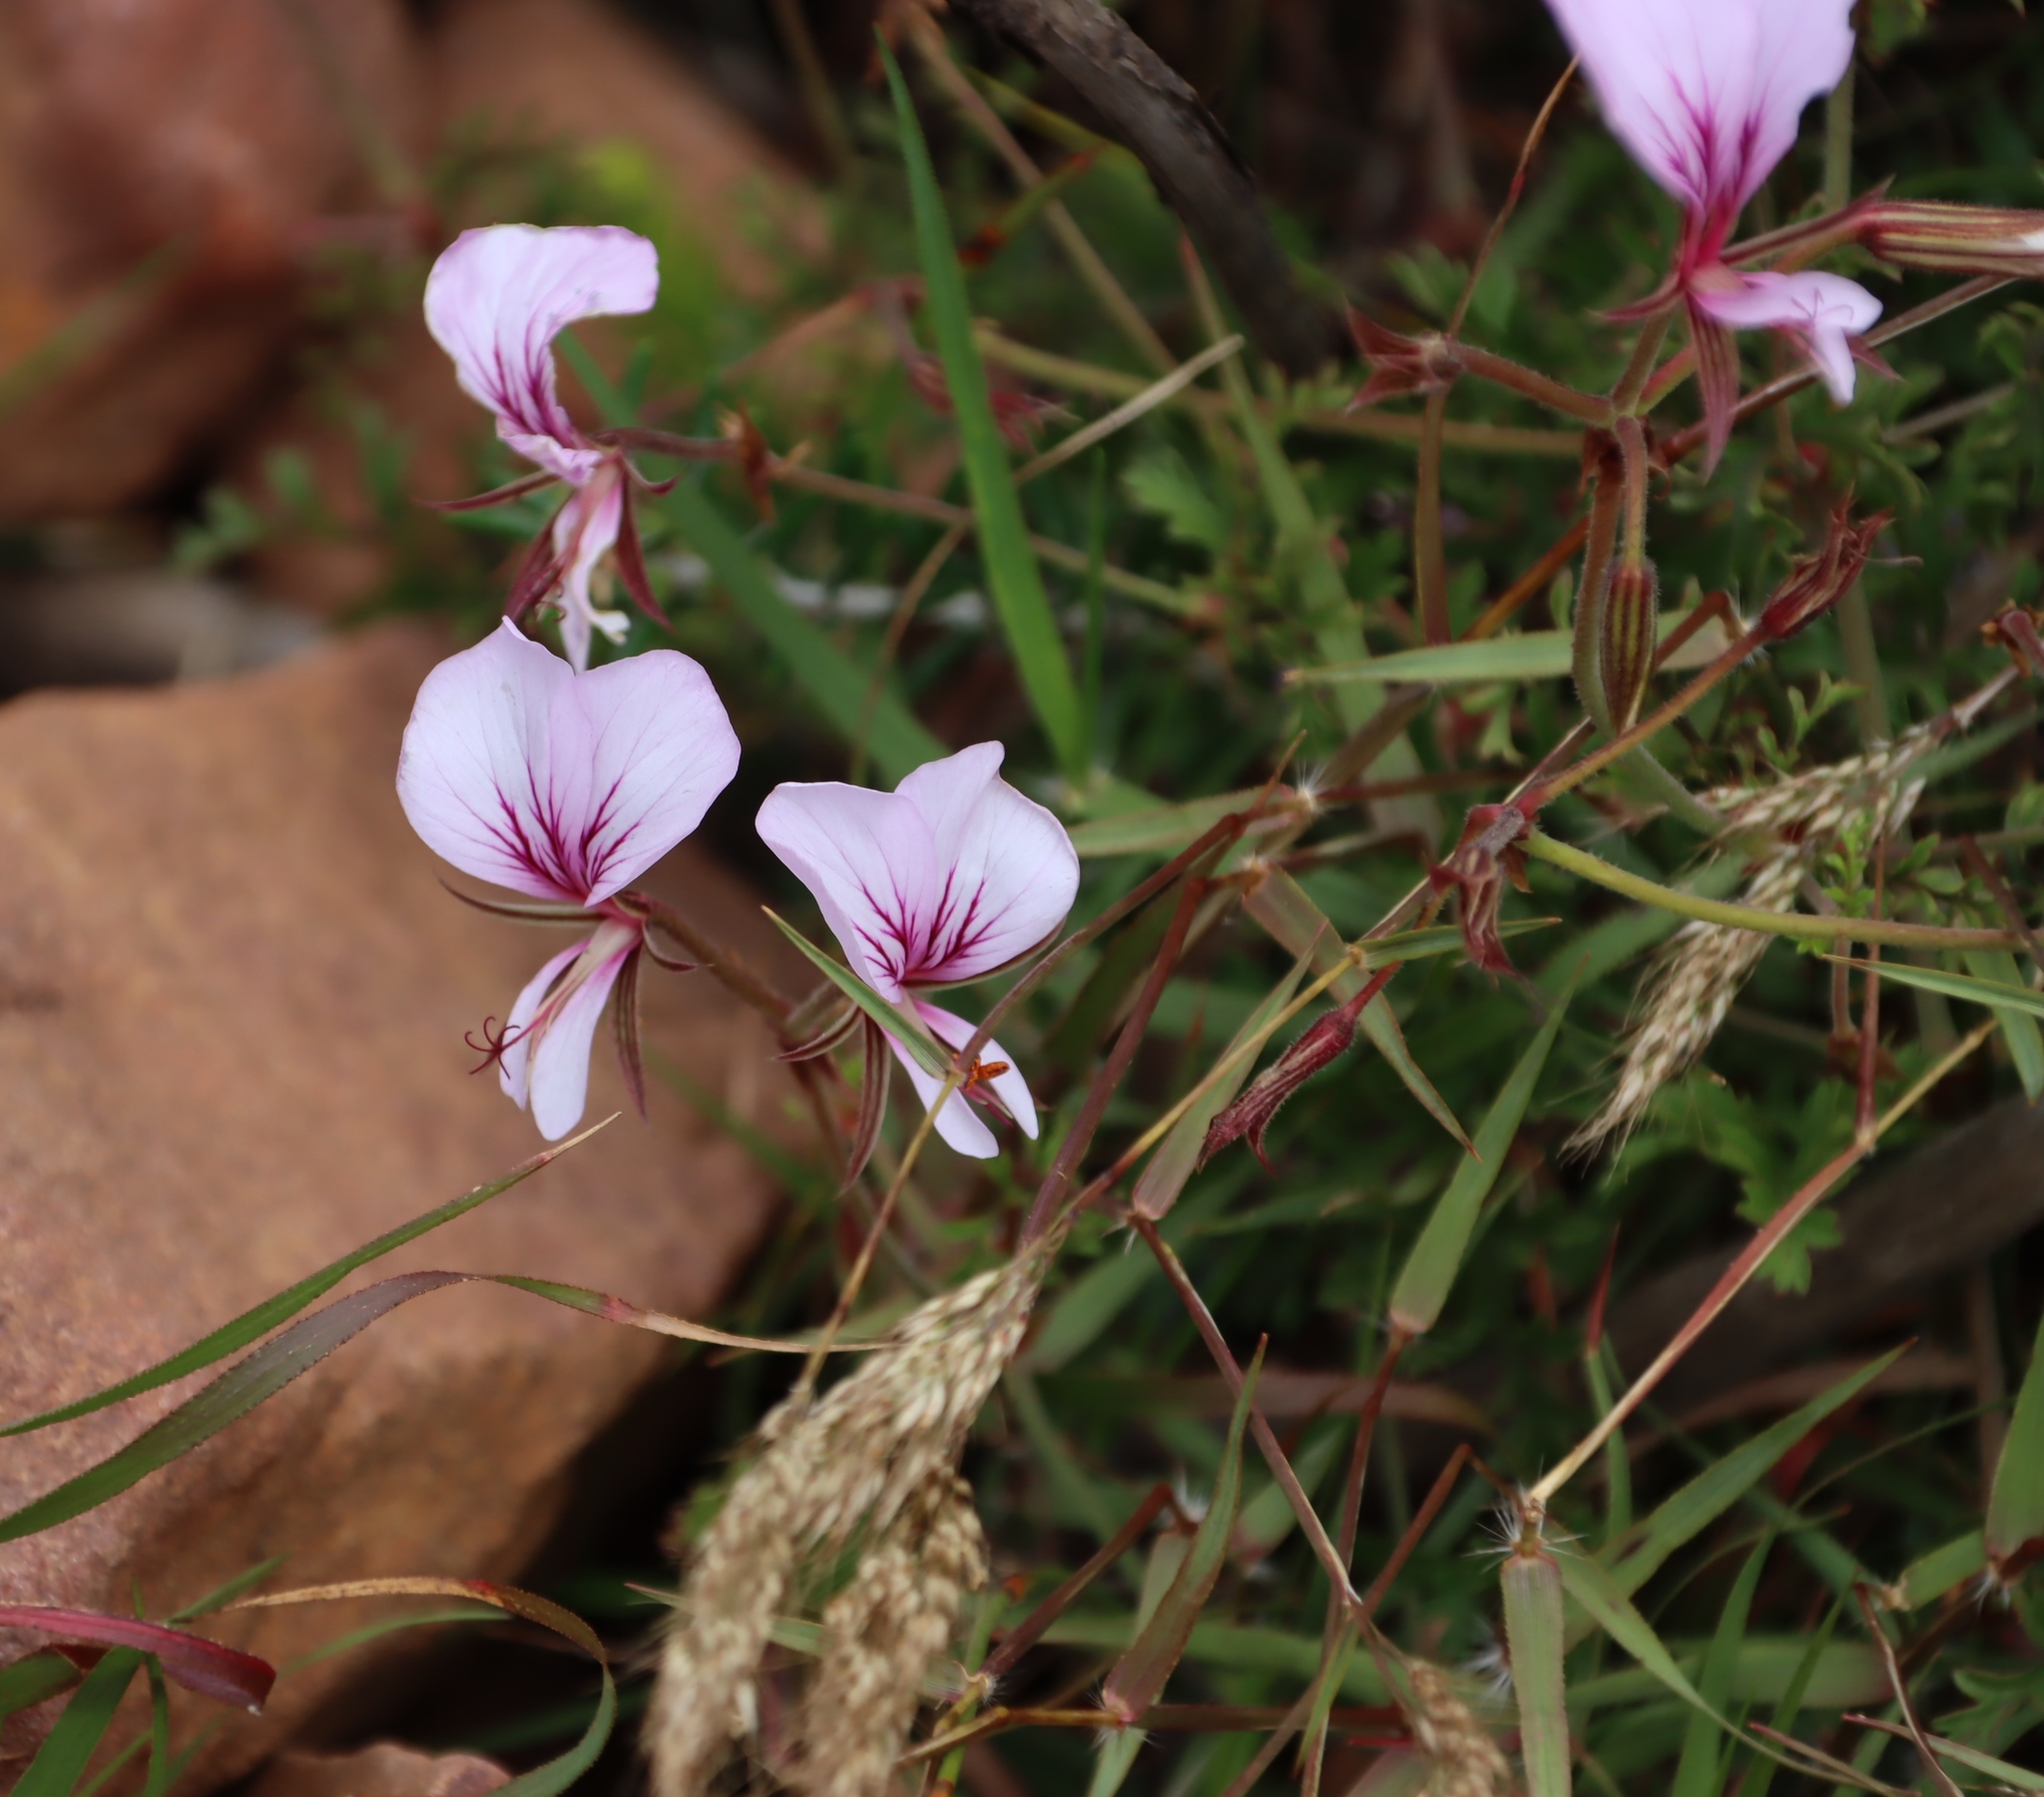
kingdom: Plantae
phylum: Tracheophyta
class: Magnoliopsida
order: Geraniales
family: Geraniaceae
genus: Pelargonium
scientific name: Pelargonium longicaule
